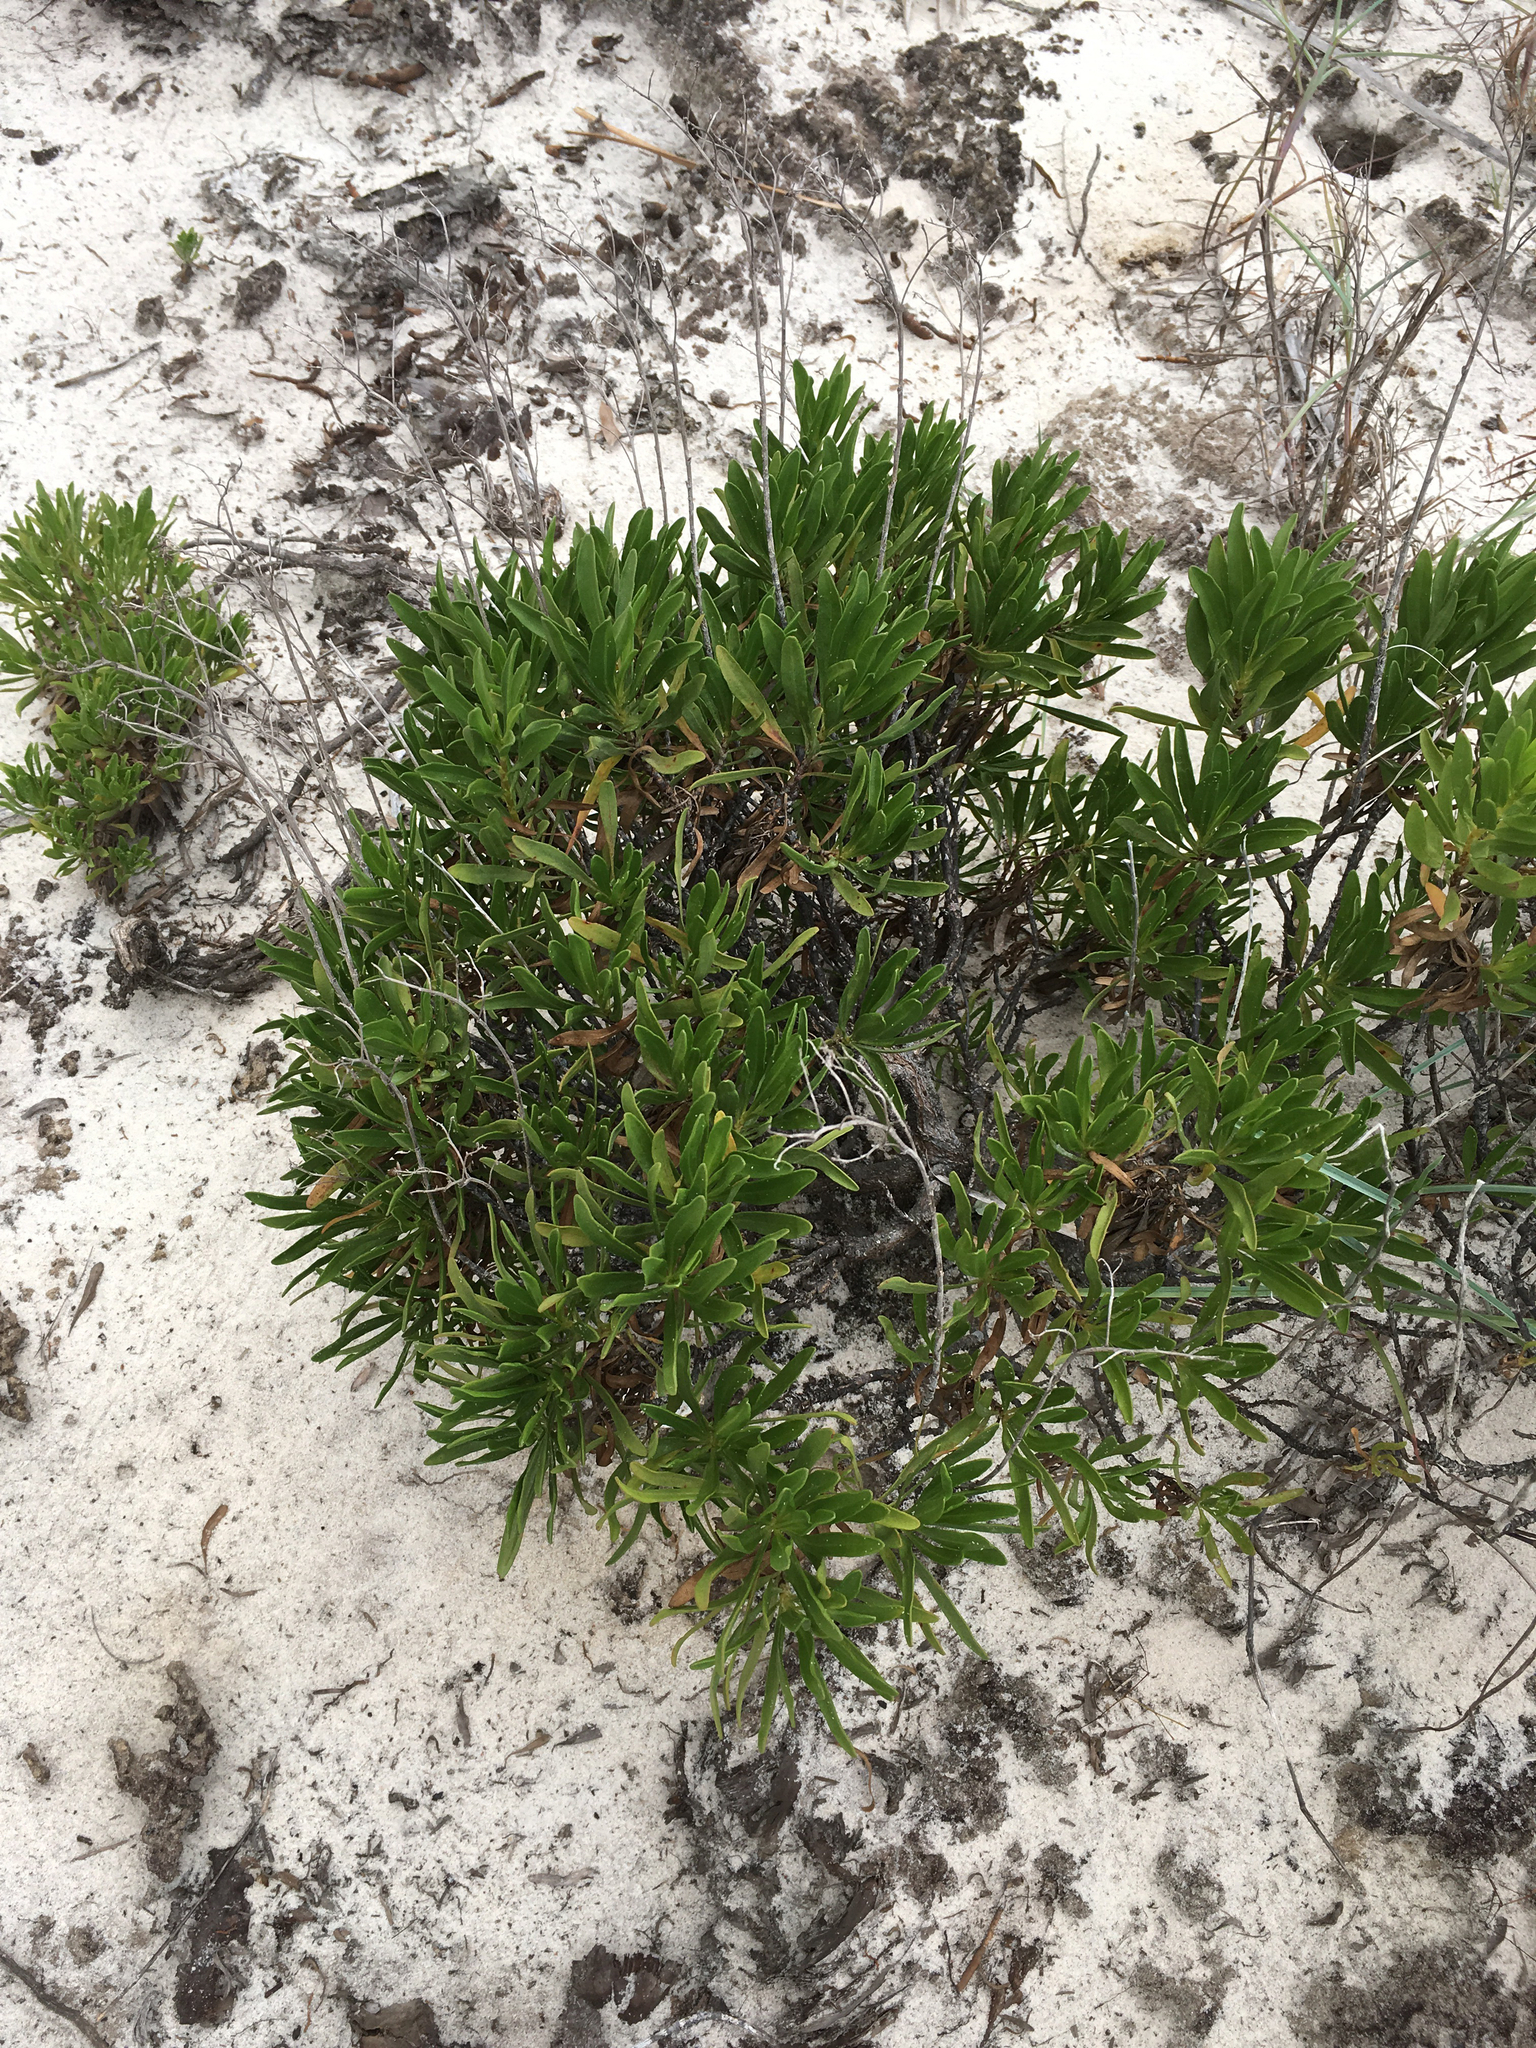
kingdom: Plantae
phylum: Tracheophyta
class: Magnoliopsida
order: Asterales
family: Asteraceae
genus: Chrysoma
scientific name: Chrysoma pauciflosculosa
